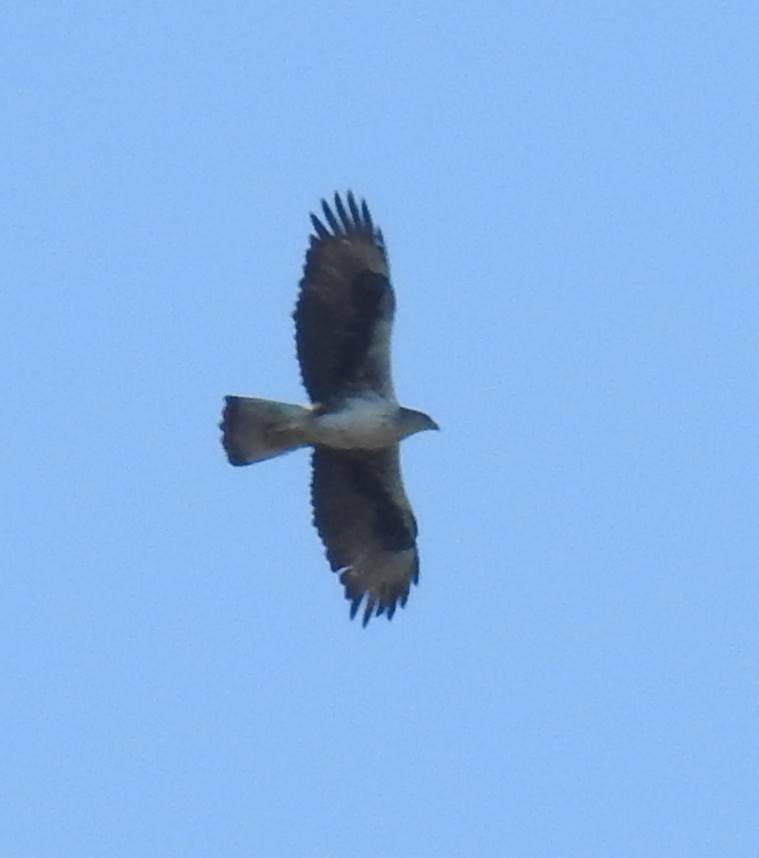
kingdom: Animalia
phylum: Chordata
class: Aves
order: Accipitriformes
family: Accipitridae
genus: Aquila
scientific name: Aquila fasciata
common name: Bonelli's eagle
